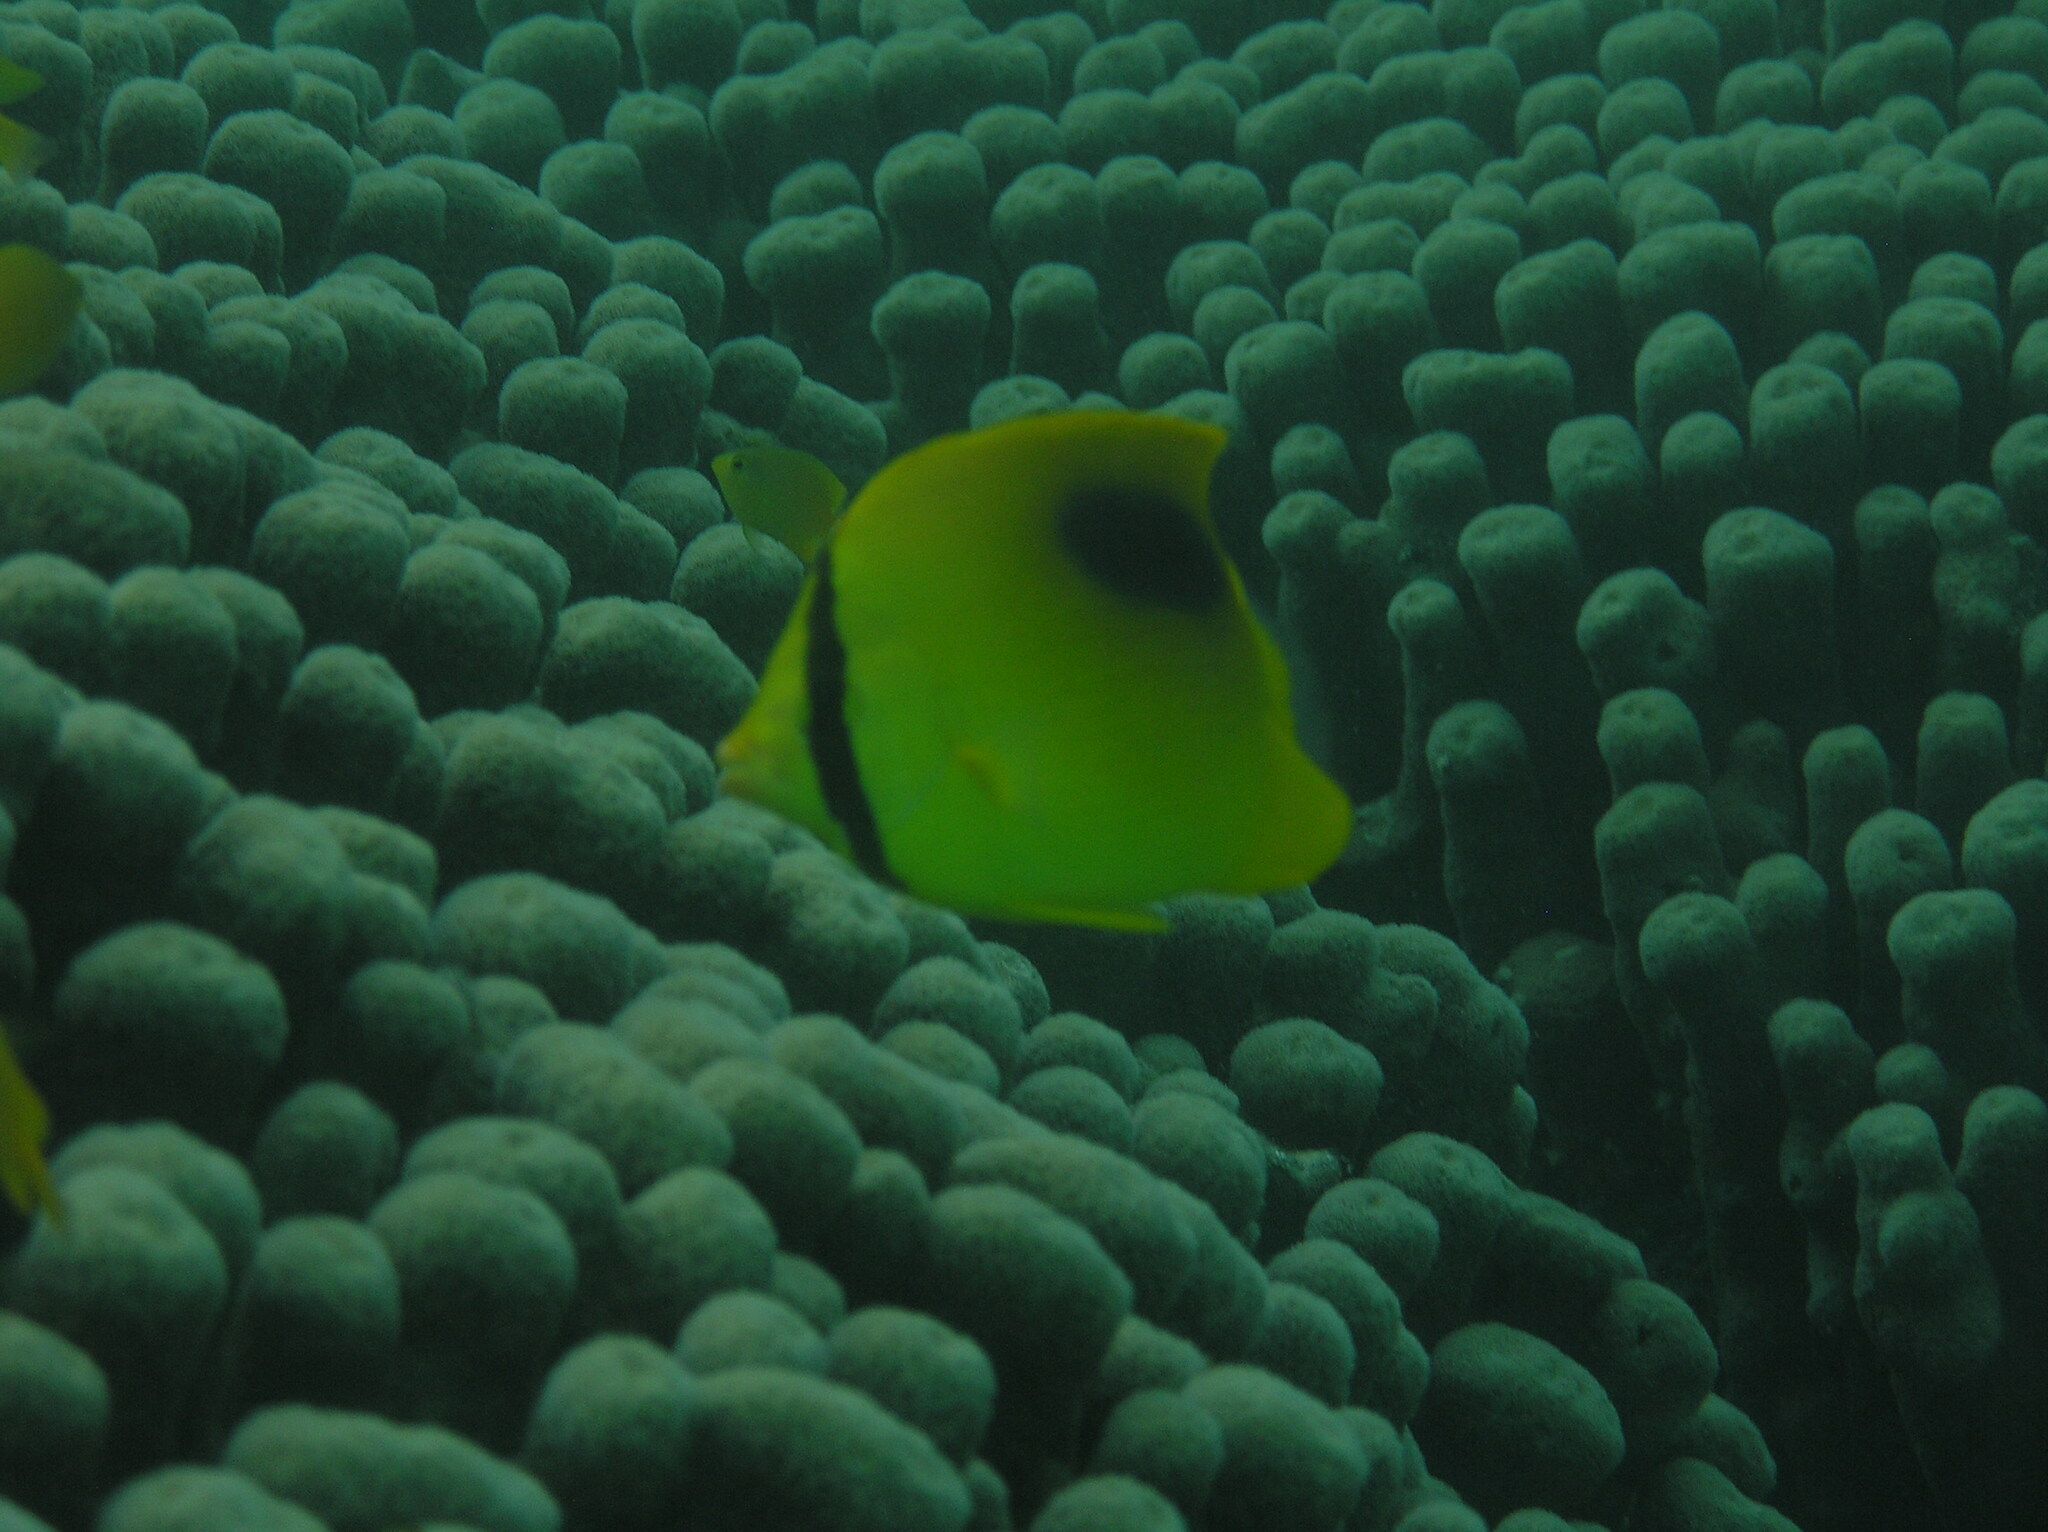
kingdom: Animalia
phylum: Chordata
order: Perciformes
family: Chaetodontidae
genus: Chaetodon
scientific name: Chaetodon speculum
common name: Mirror butterflyfish
